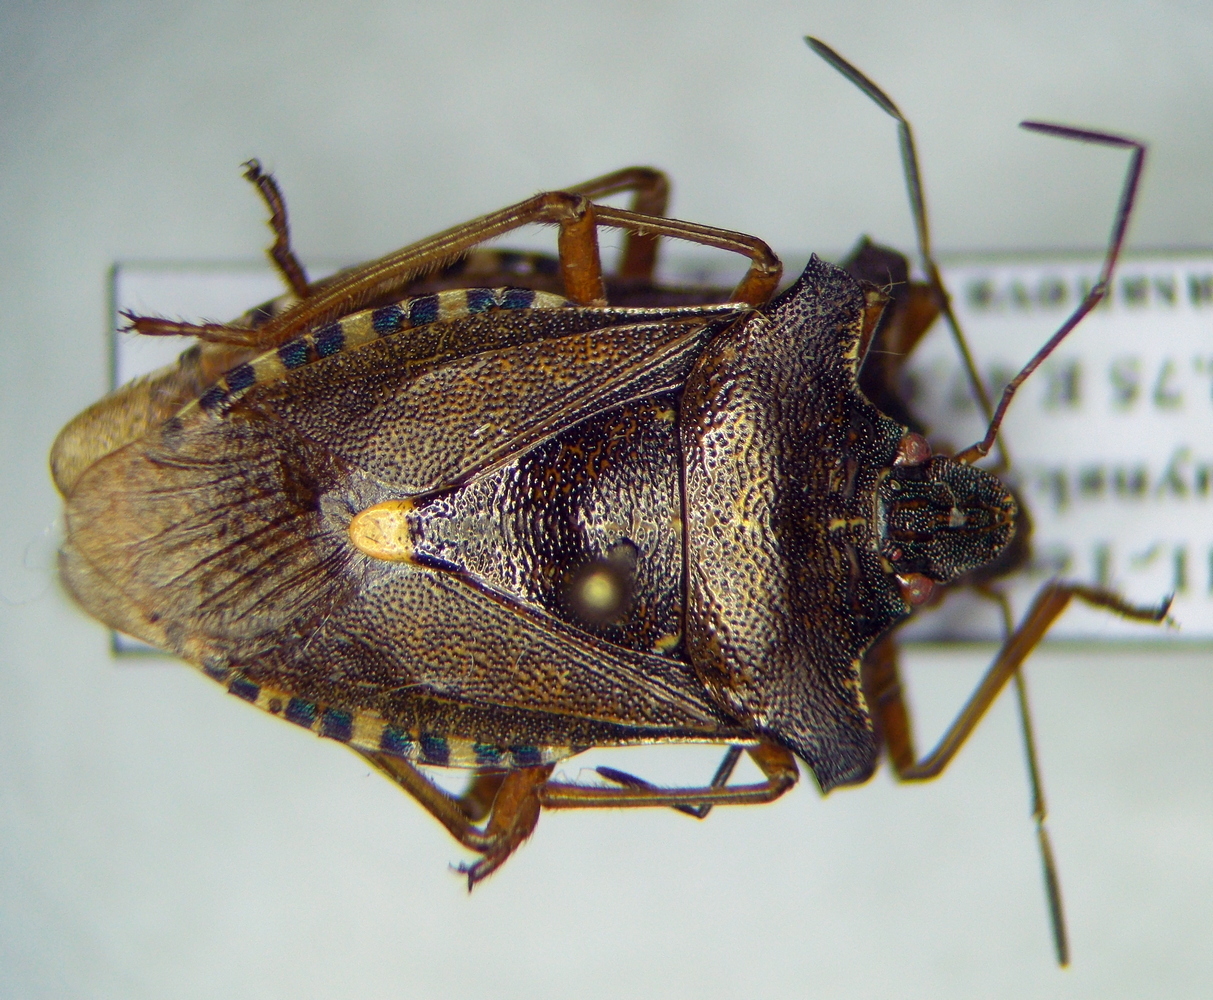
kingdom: Animalia
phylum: Arthropoda
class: Insecta
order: Hemiptera
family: Pentatomidae
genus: Pentatoma
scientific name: Pentatoma rufipes
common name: Forest bug
